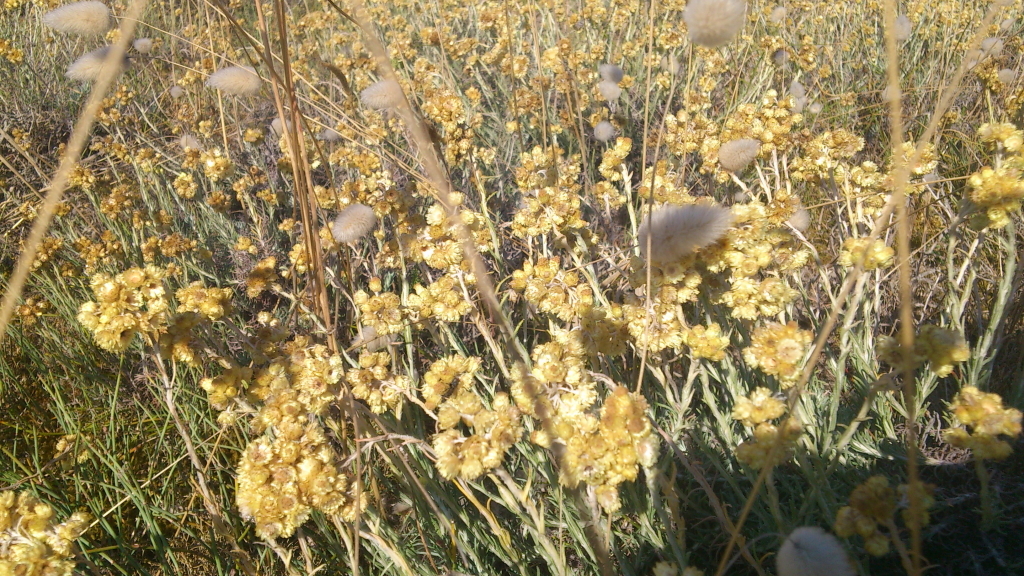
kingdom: Plantae
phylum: Tracheophyta
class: Liliopsida
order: Poales
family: Poaceae
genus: Lagurus
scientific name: Lagurus ovatus
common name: Hare's-tail
